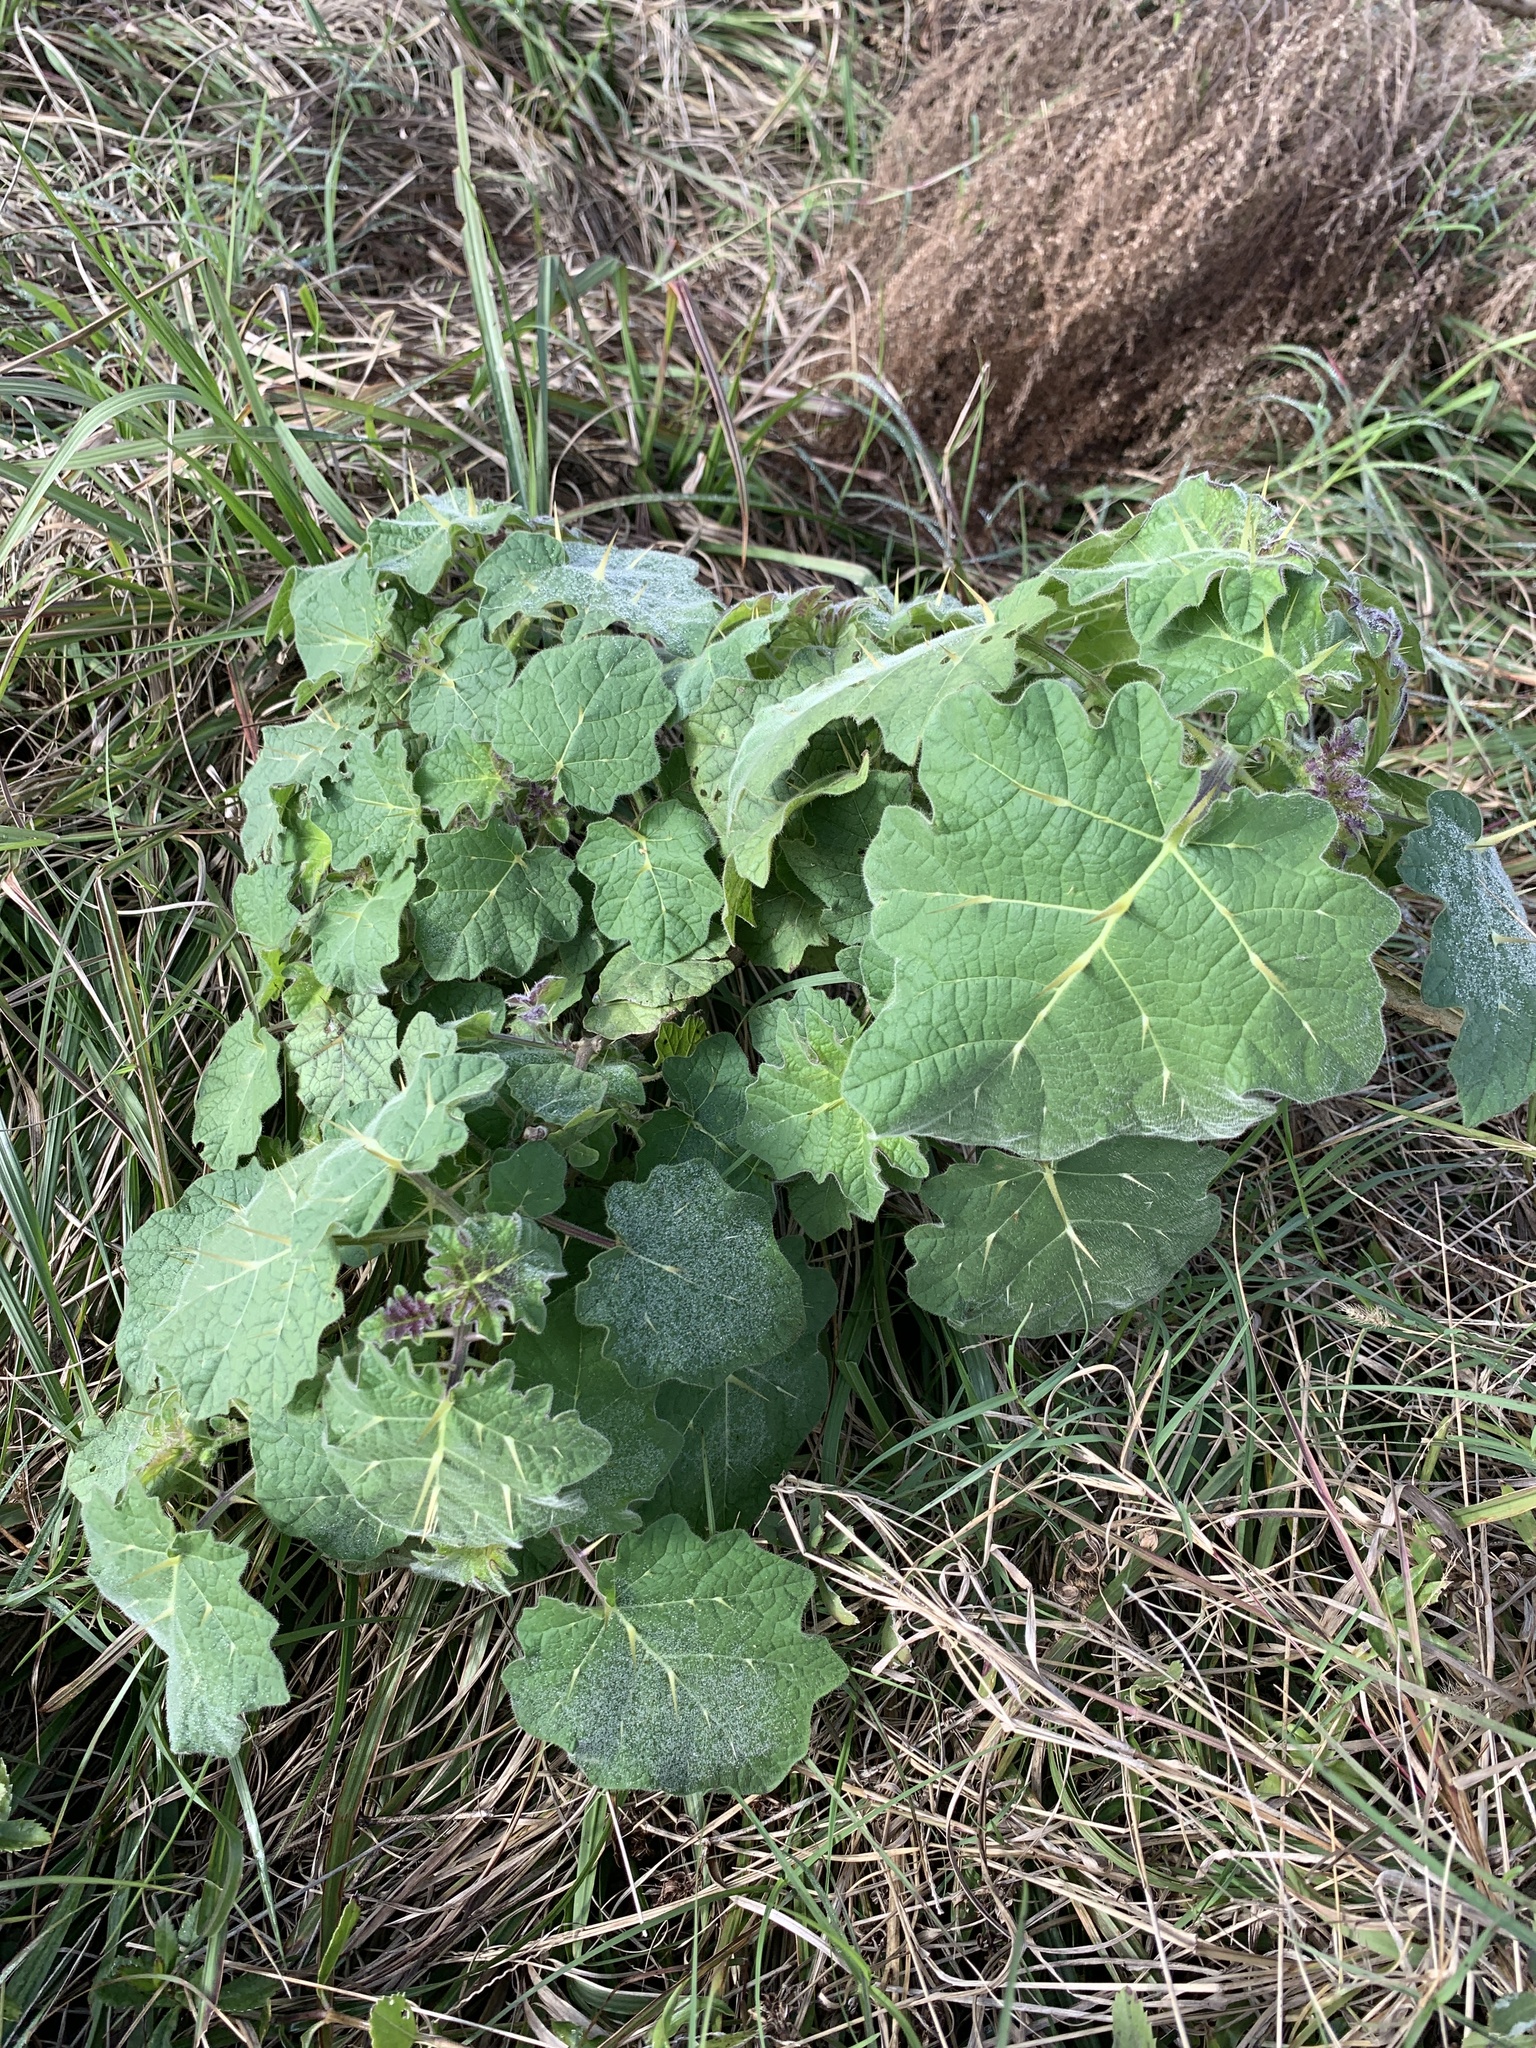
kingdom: Plantae
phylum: Tracheophyta
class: Magnoliopsida
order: Solanales
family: Solanaceae
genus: Solanum
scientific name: Solanum viarum
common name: Tropical soda apple
